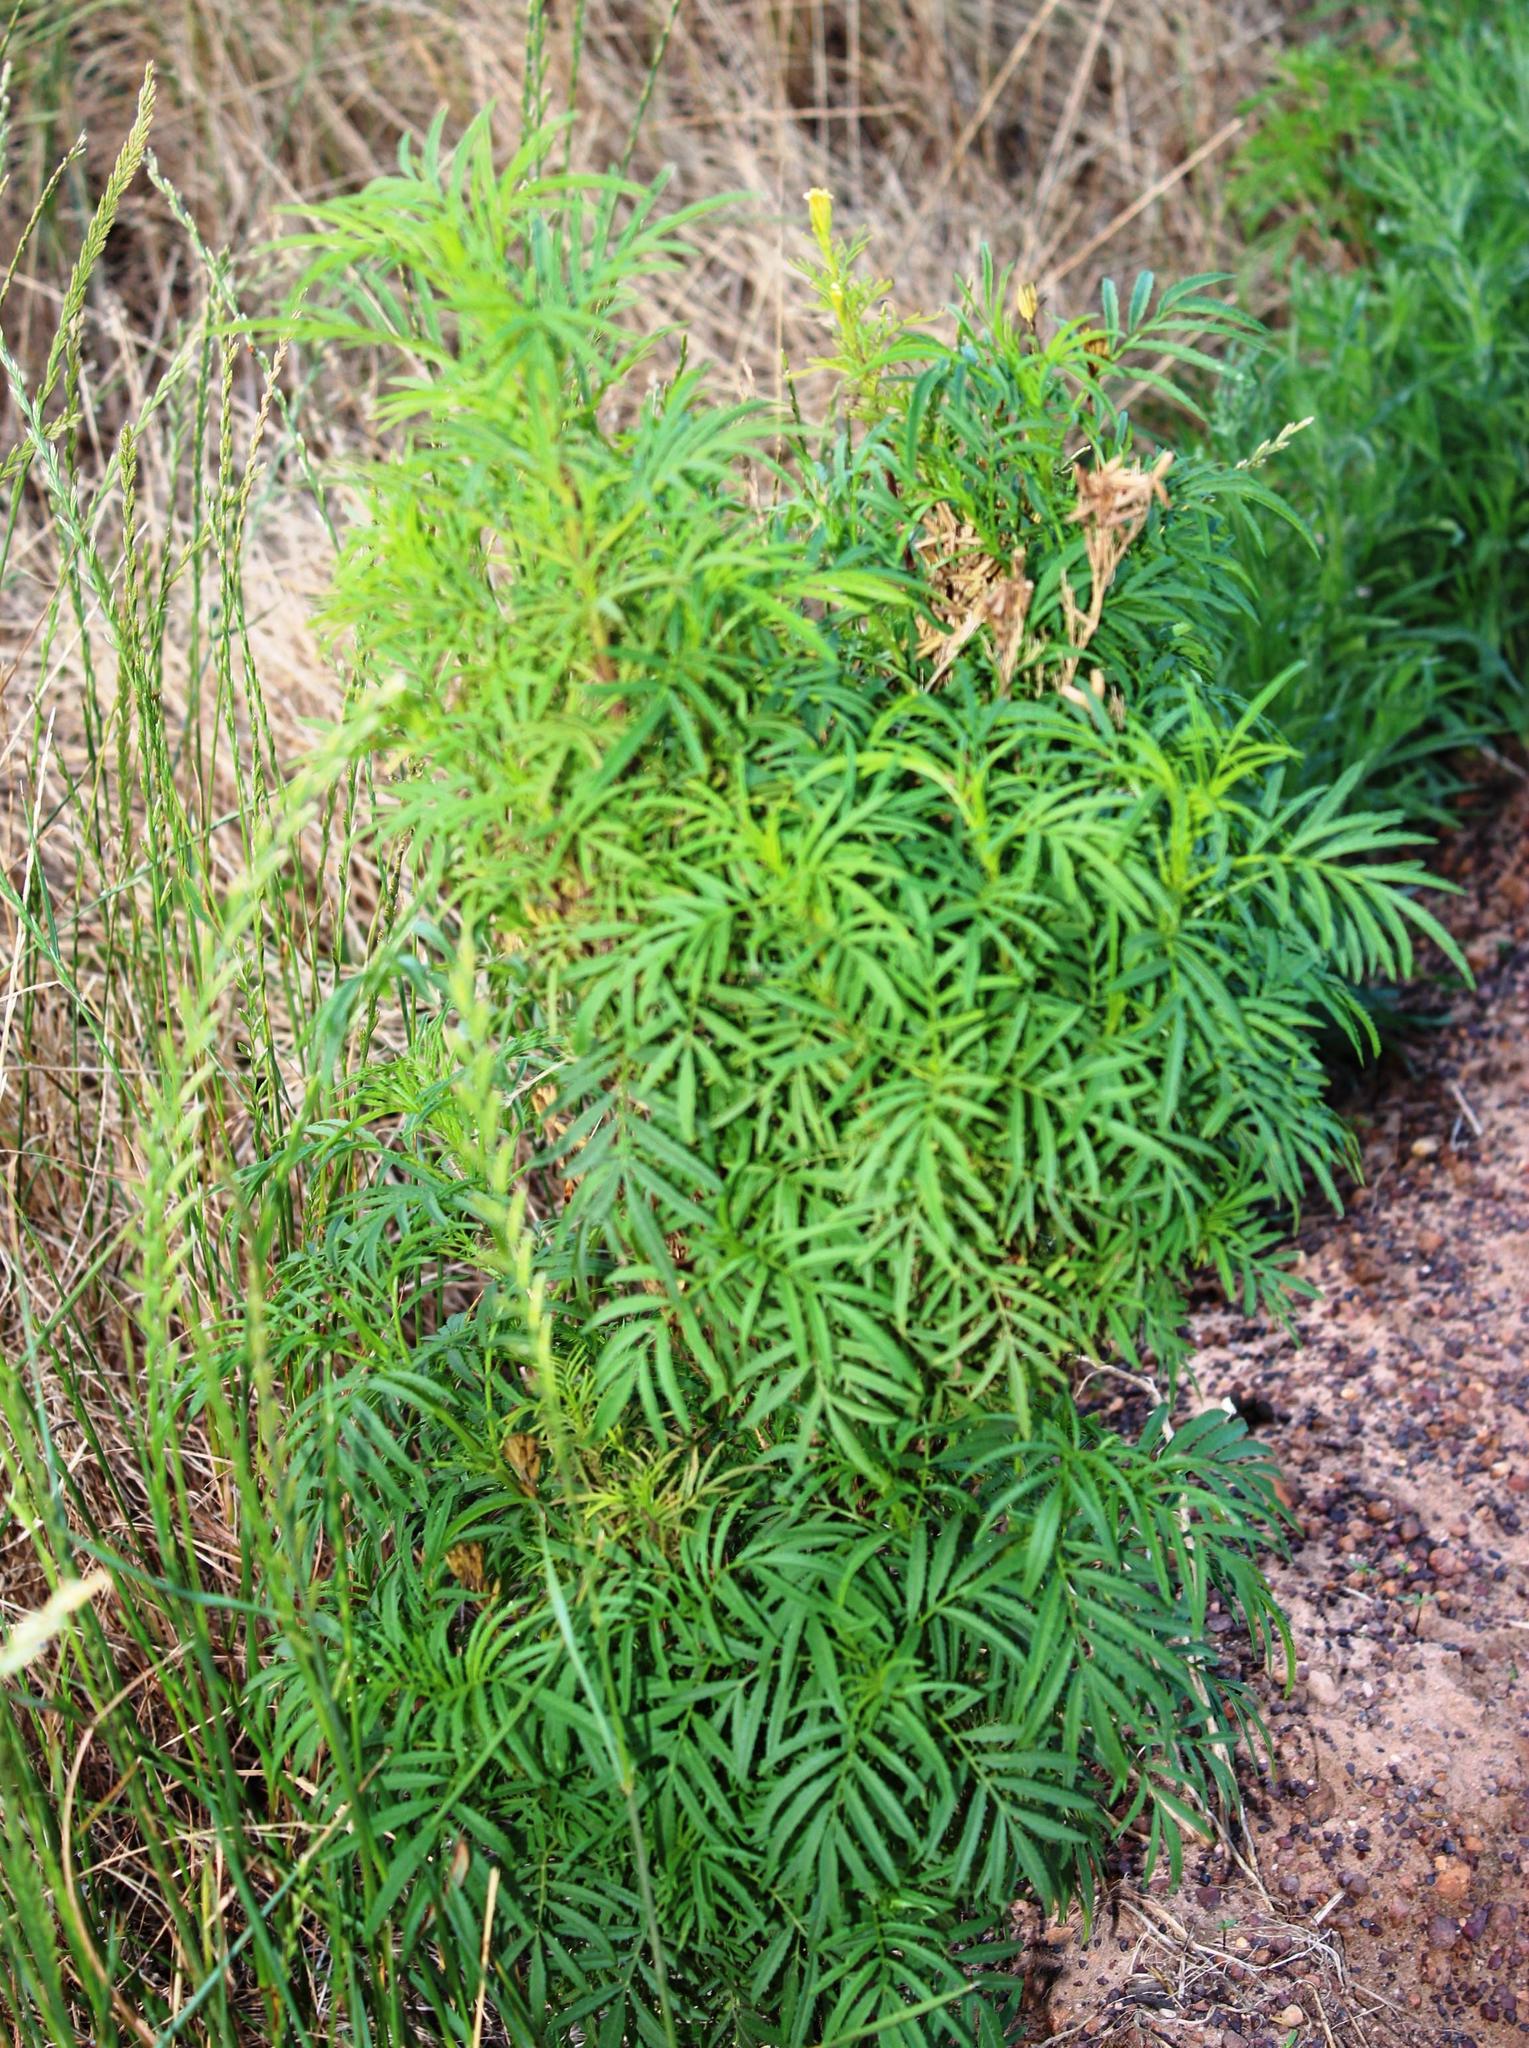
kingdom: Plantae
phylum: Tracheophyta
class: Magnoliopsida
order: Asterales
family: Asteraceae
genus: Tagetes
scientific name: Tagetes minuta
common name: Muster john henry
